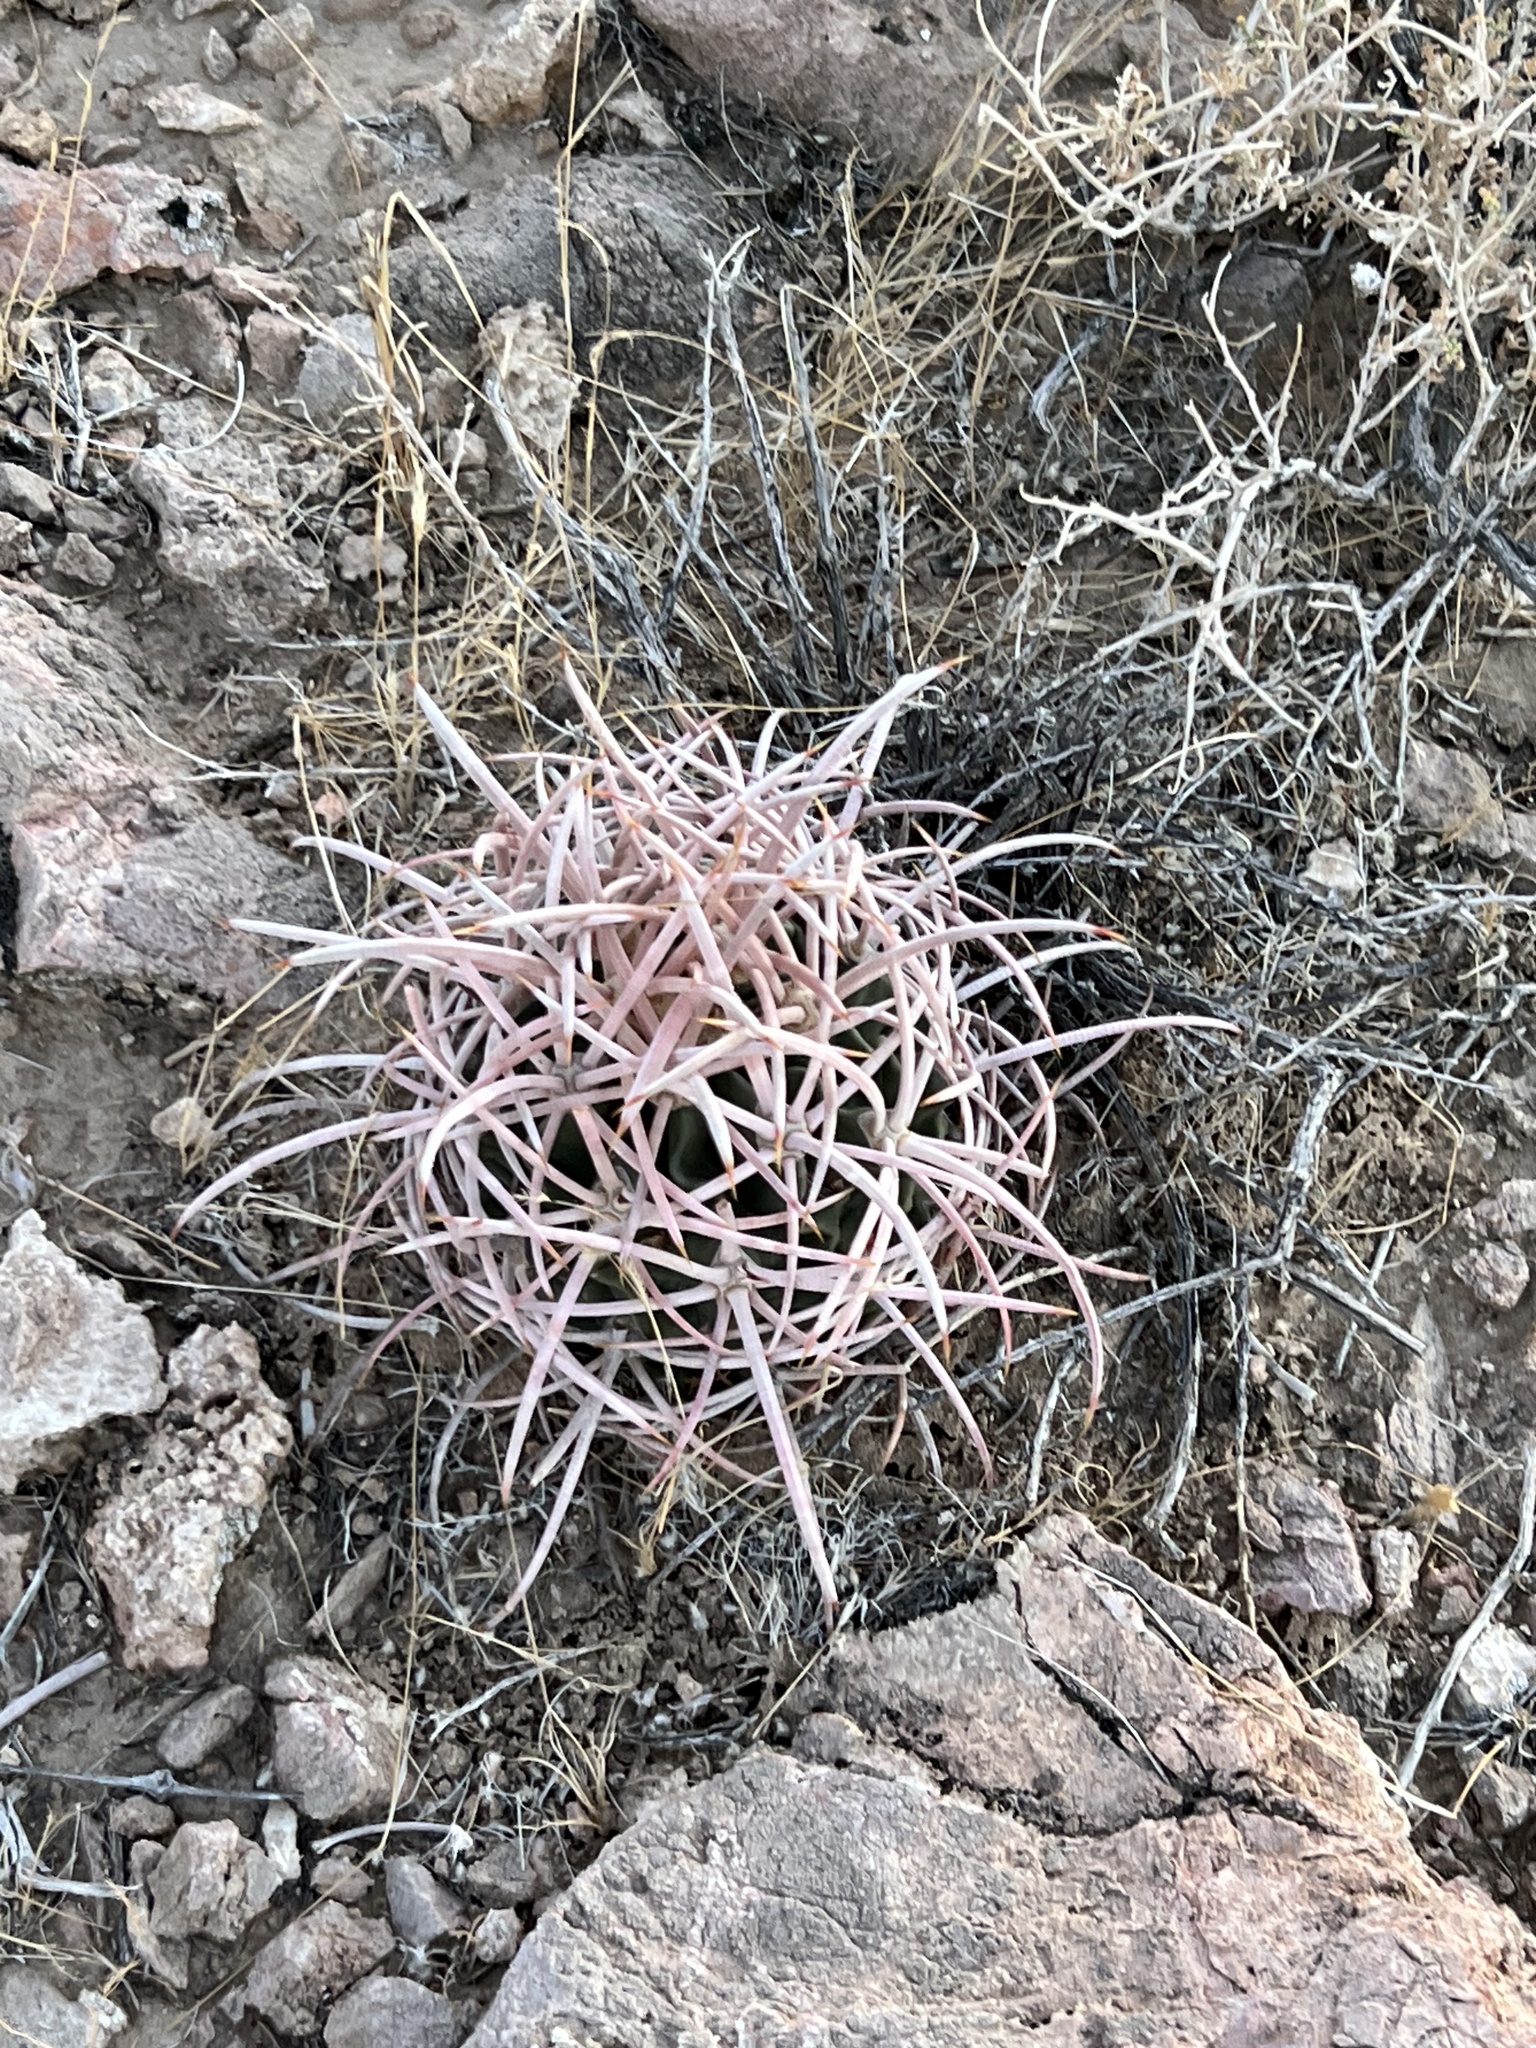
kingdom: Plantae
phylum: Tracheophyta
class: Magnoliopsida
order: Caryophyllales
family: Cactaceae
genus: Echinocactus
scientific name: Echinocactus polycephalus
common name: Cottontop cactus
